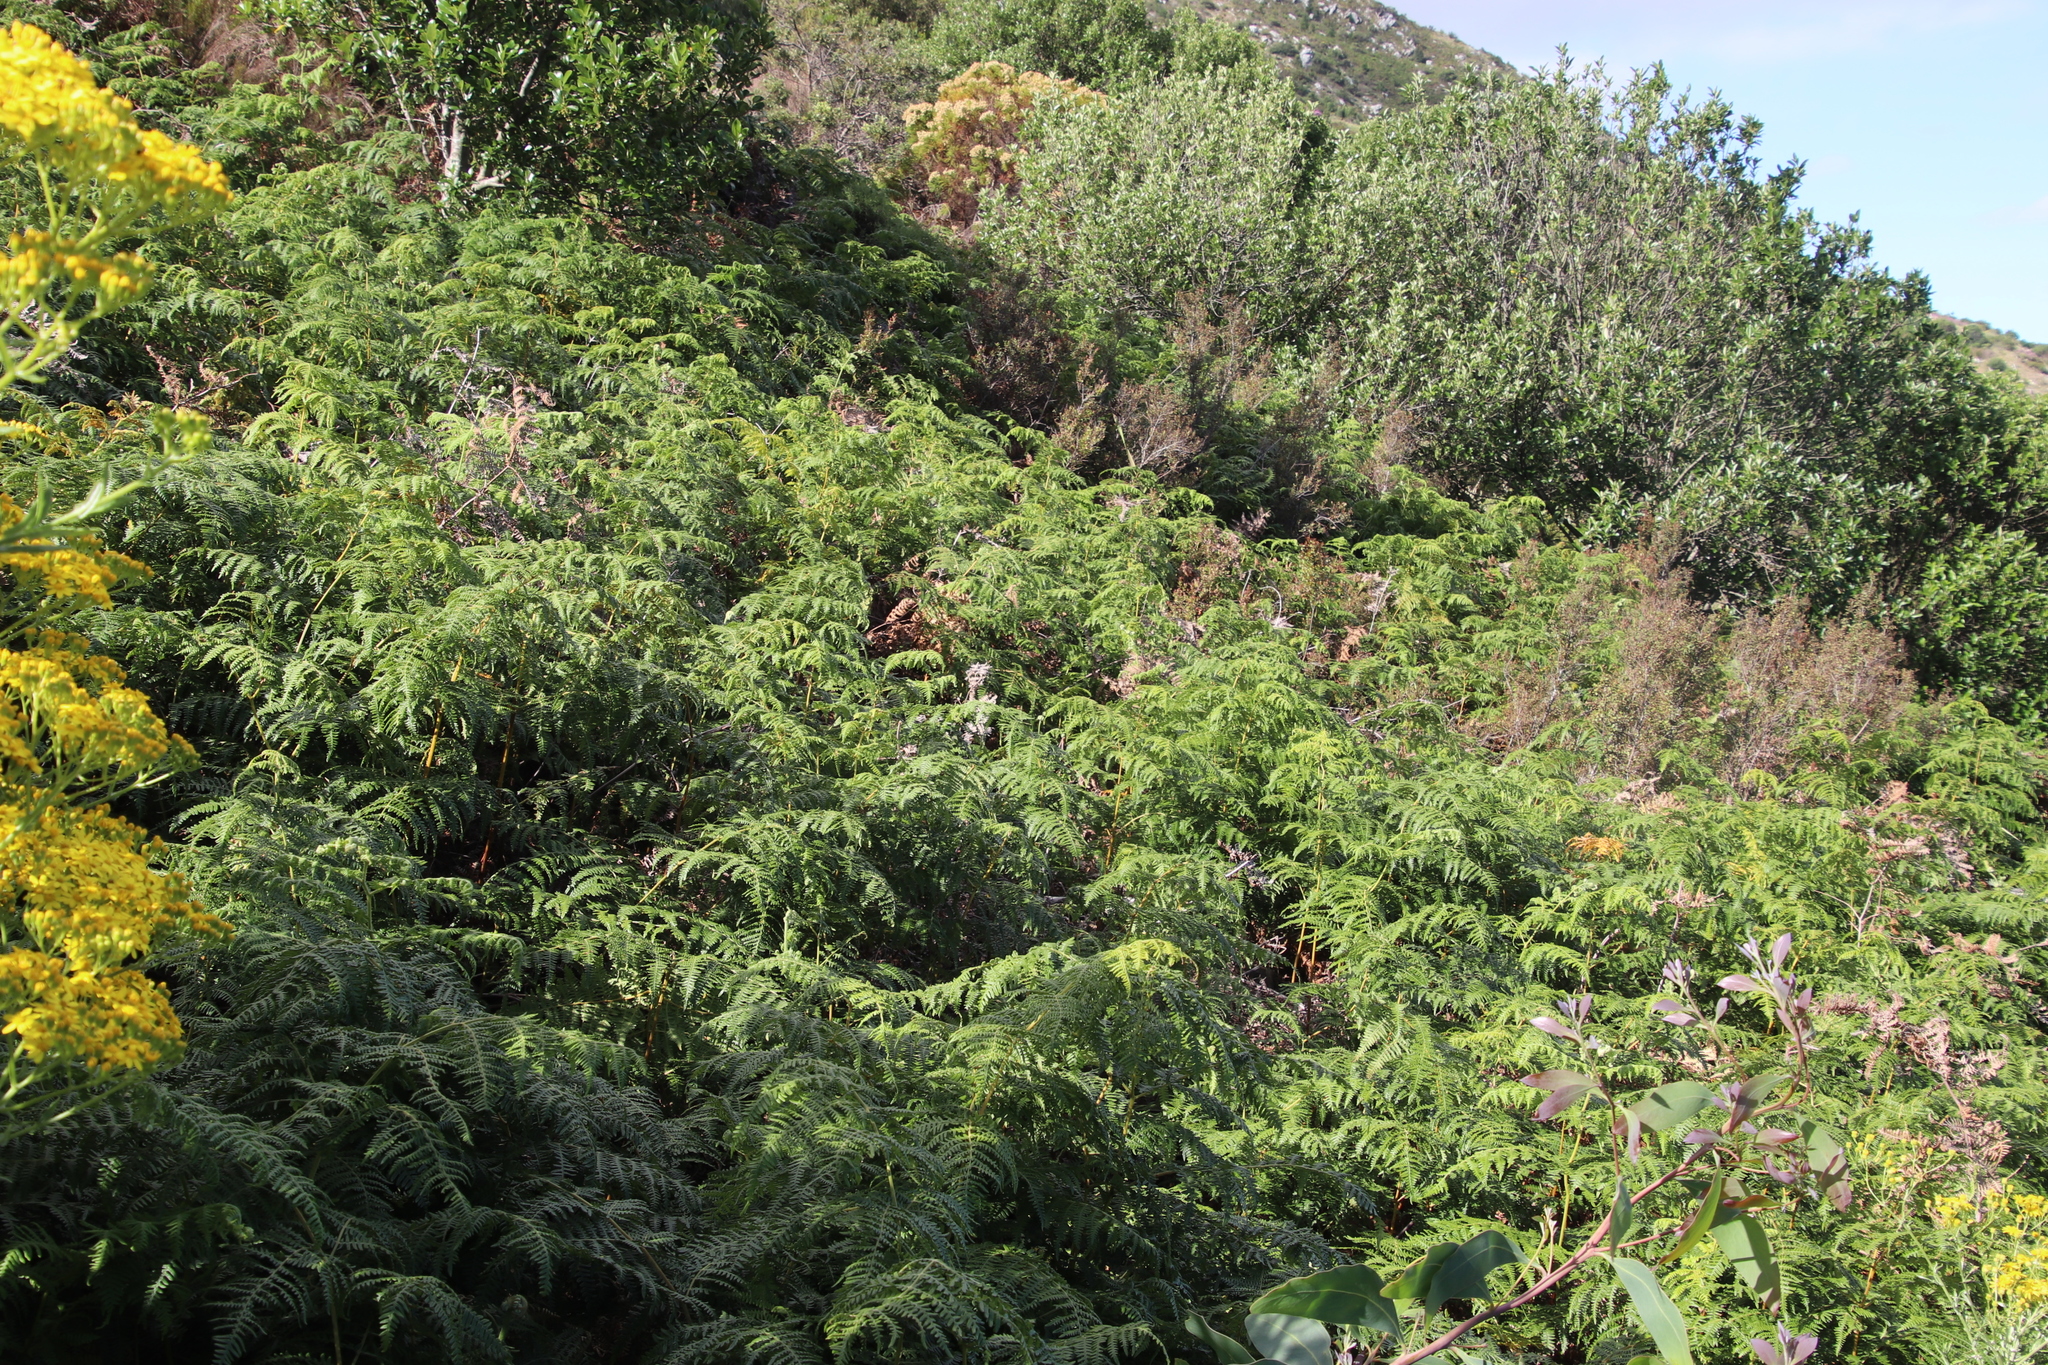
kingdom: Plantae
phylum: Tracheophyta
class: Polypodiopsida
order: Polypodiales
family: Dennstaedtiaceae
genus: Pteridium
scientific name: Pteridium aquilinum
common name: Bracken
